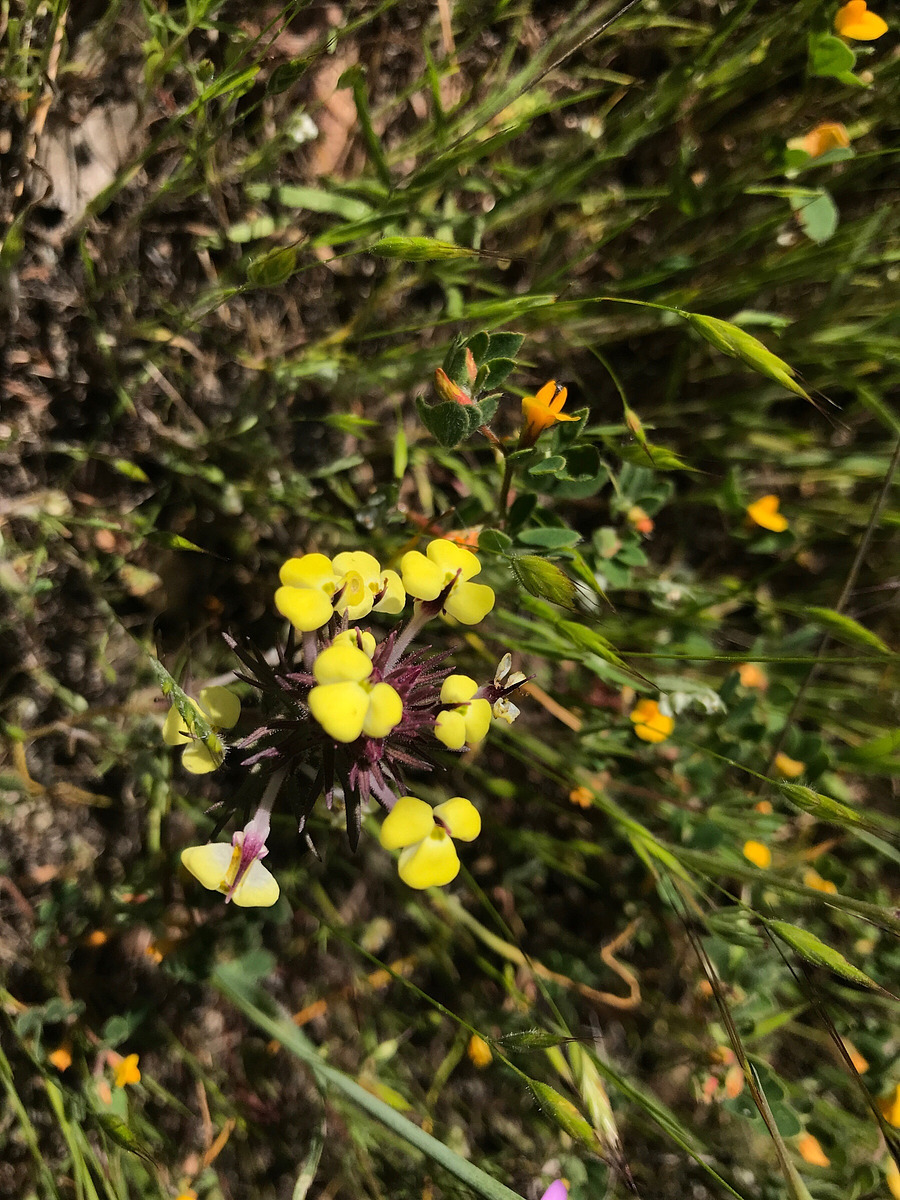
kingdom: Plantae
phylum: Tracheophyta
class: Magnoliopsida
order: Lamiales
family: Orobanchaceae
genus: Triphysaria
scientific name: Triphysaria eriantha
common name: Johnny-tuck
